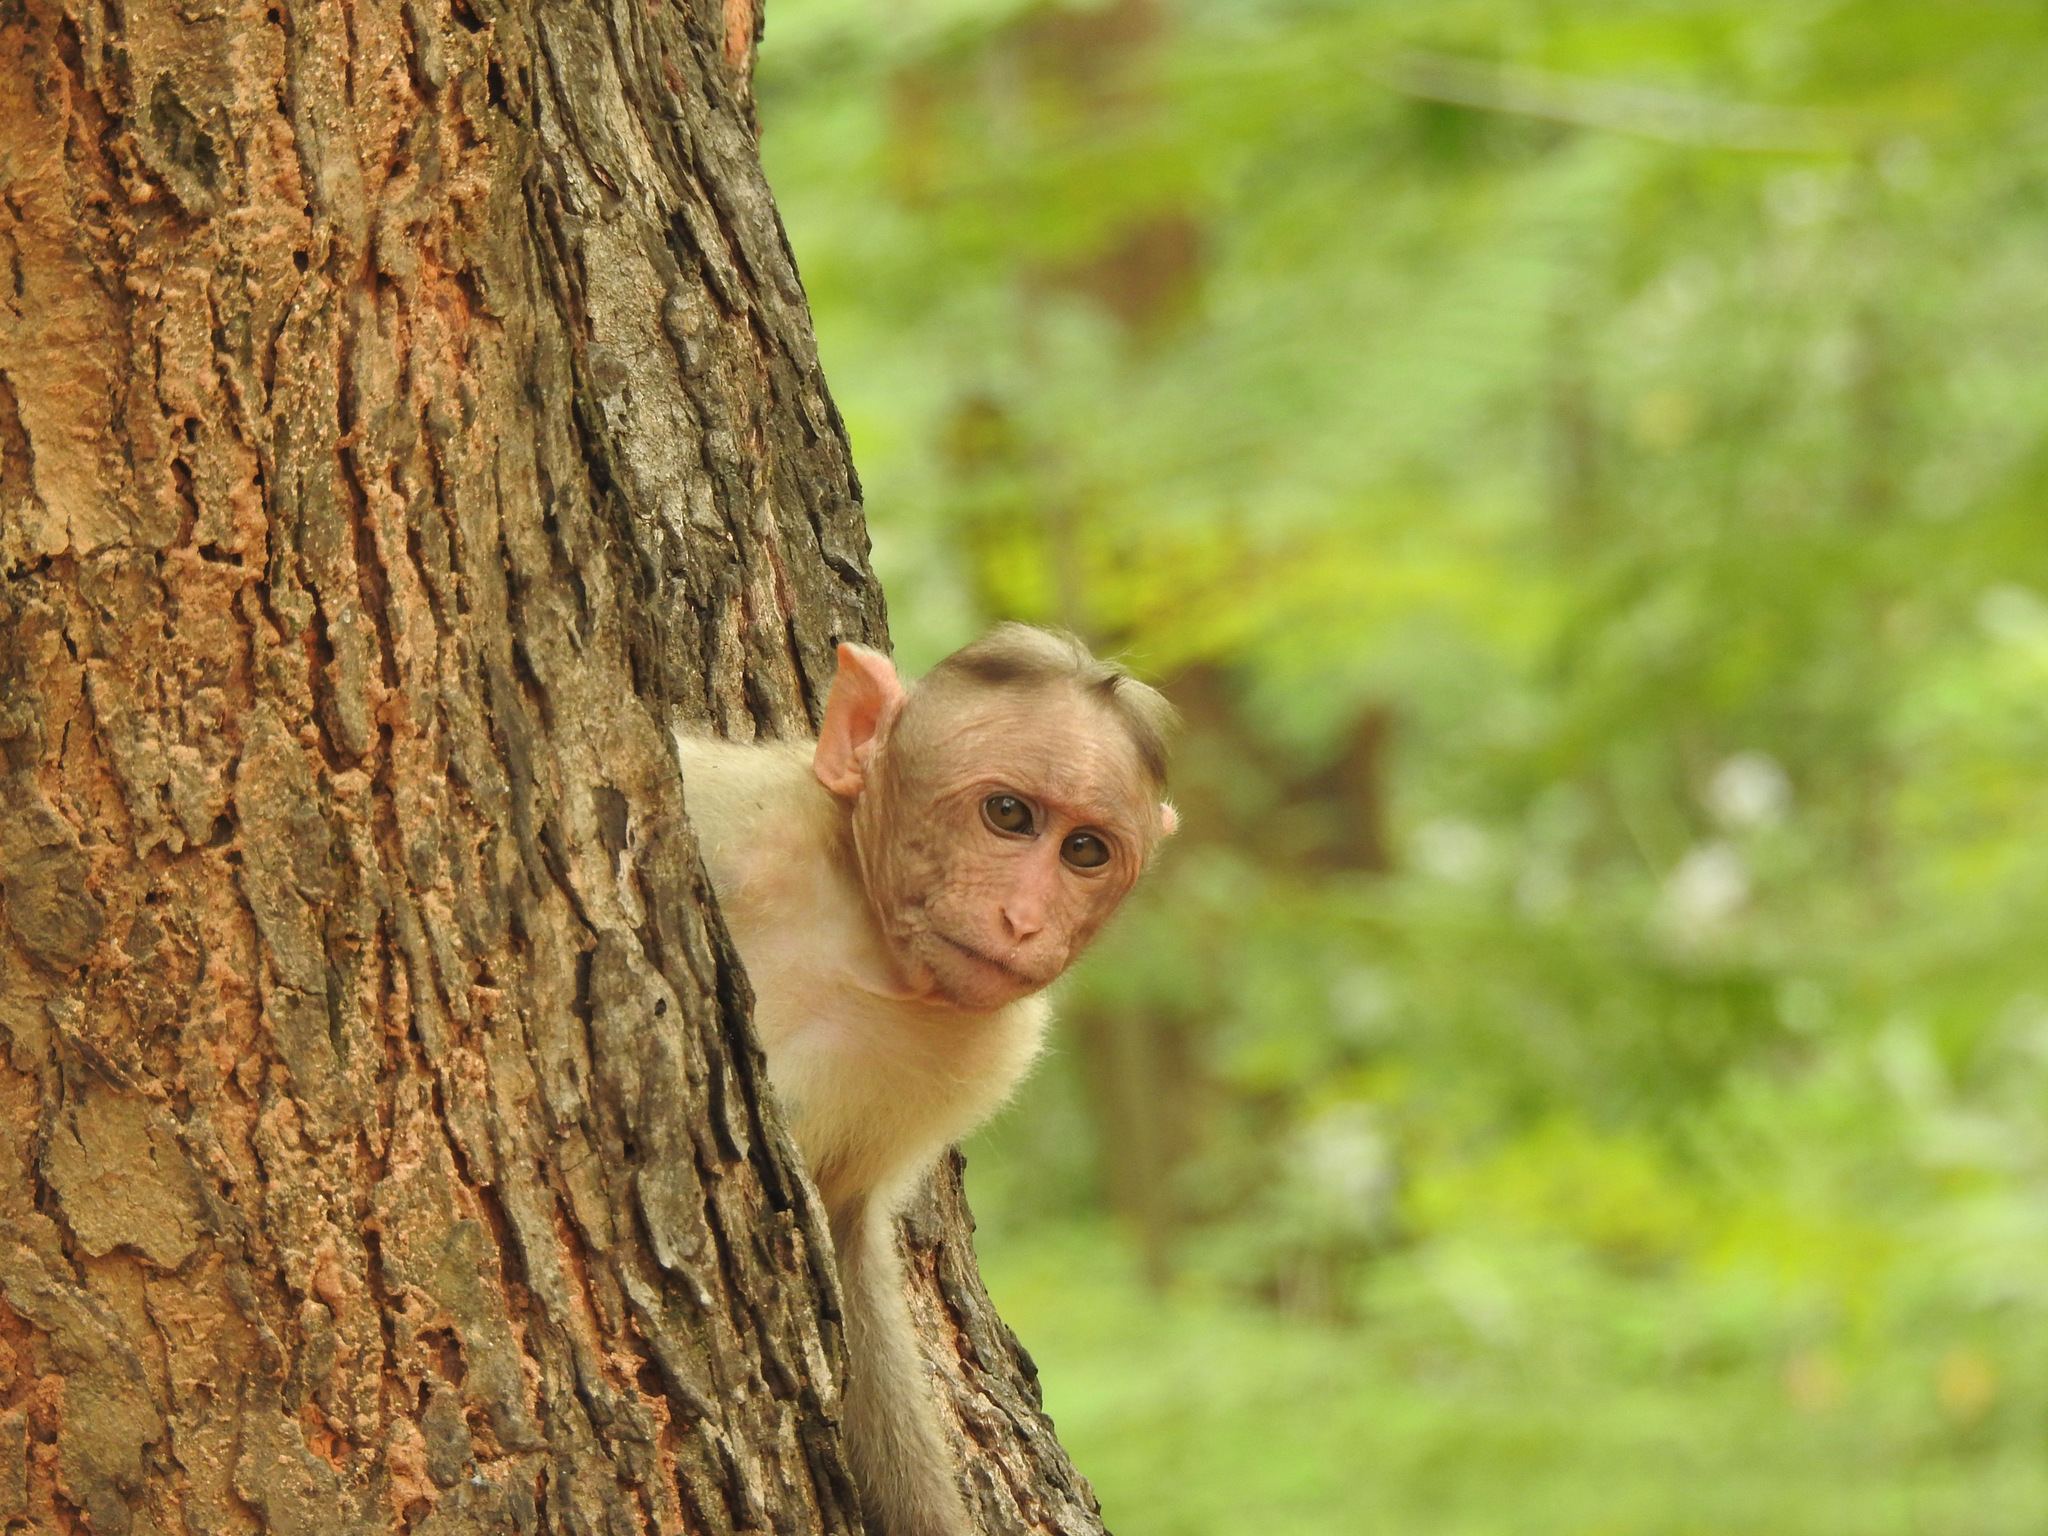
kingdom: Animalia
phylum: Chordata
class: Mammalia
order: Primates
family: Cercopithecidae
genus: Macaca
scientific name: Macaca radiata
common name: Bonnet macaque
